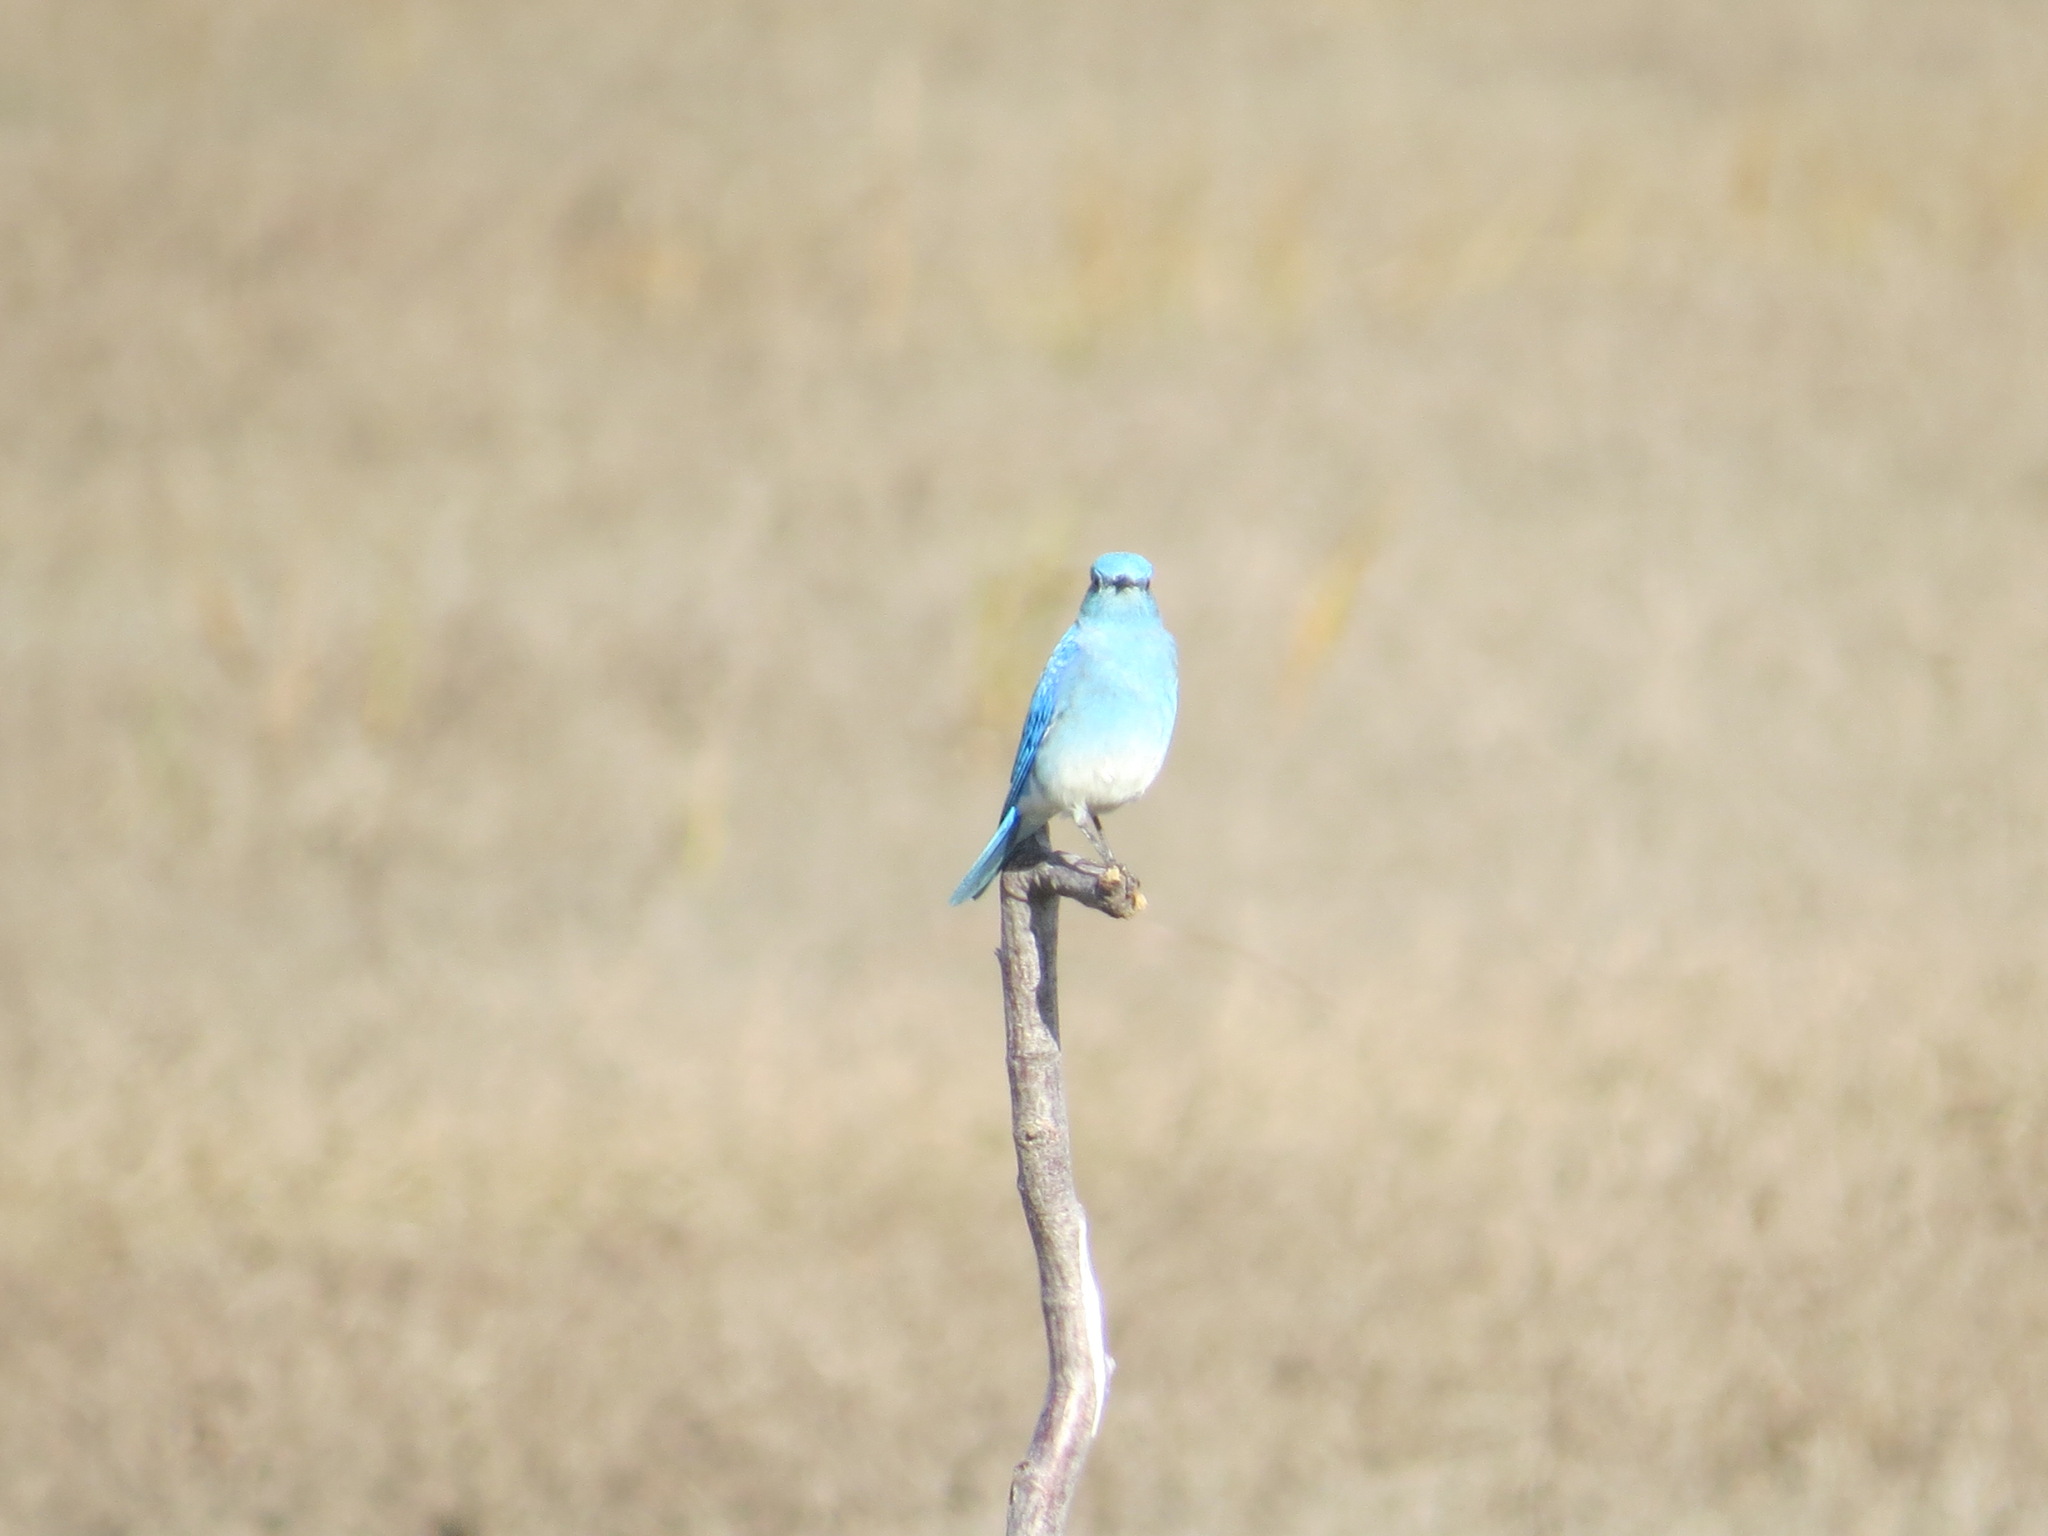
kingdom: Animalia
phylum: Chordata
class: Aves
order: Passeriformes
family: Turdidae
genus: Sialia
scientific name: Sialia currucoides
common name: Mountain bluebird
